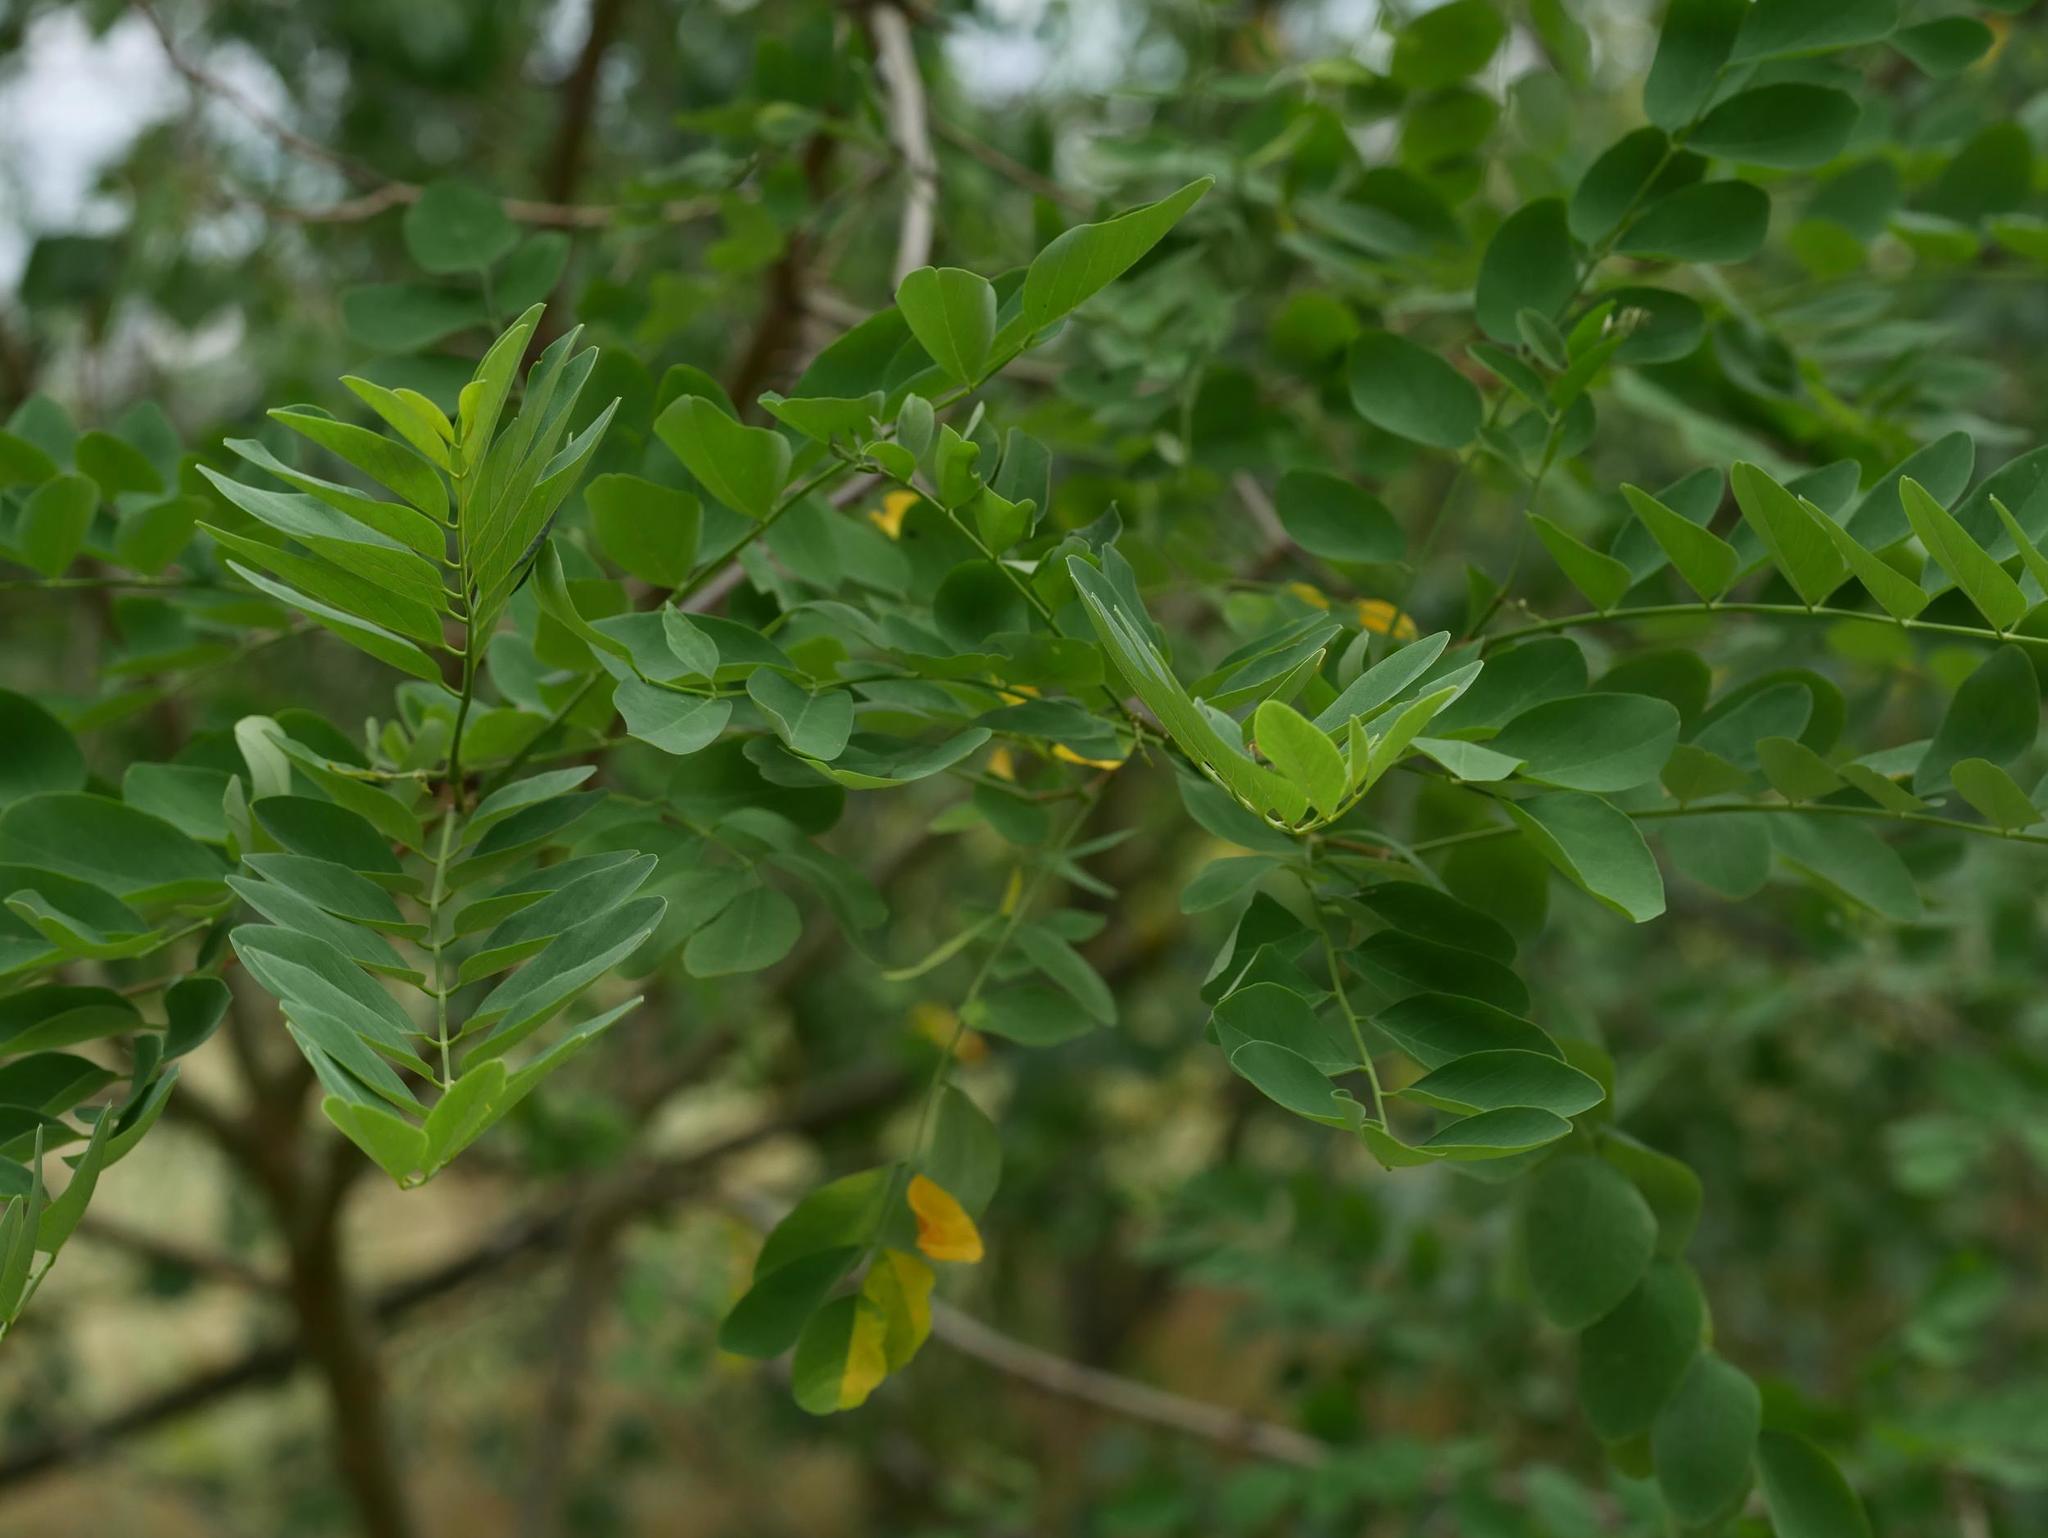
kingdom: Plantae
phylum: Tracheophyta
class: Magnoliopsida
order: Fabales
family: Fabaceae
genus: Robinia
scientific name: Robinia pseudoacacia
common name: Black locust
